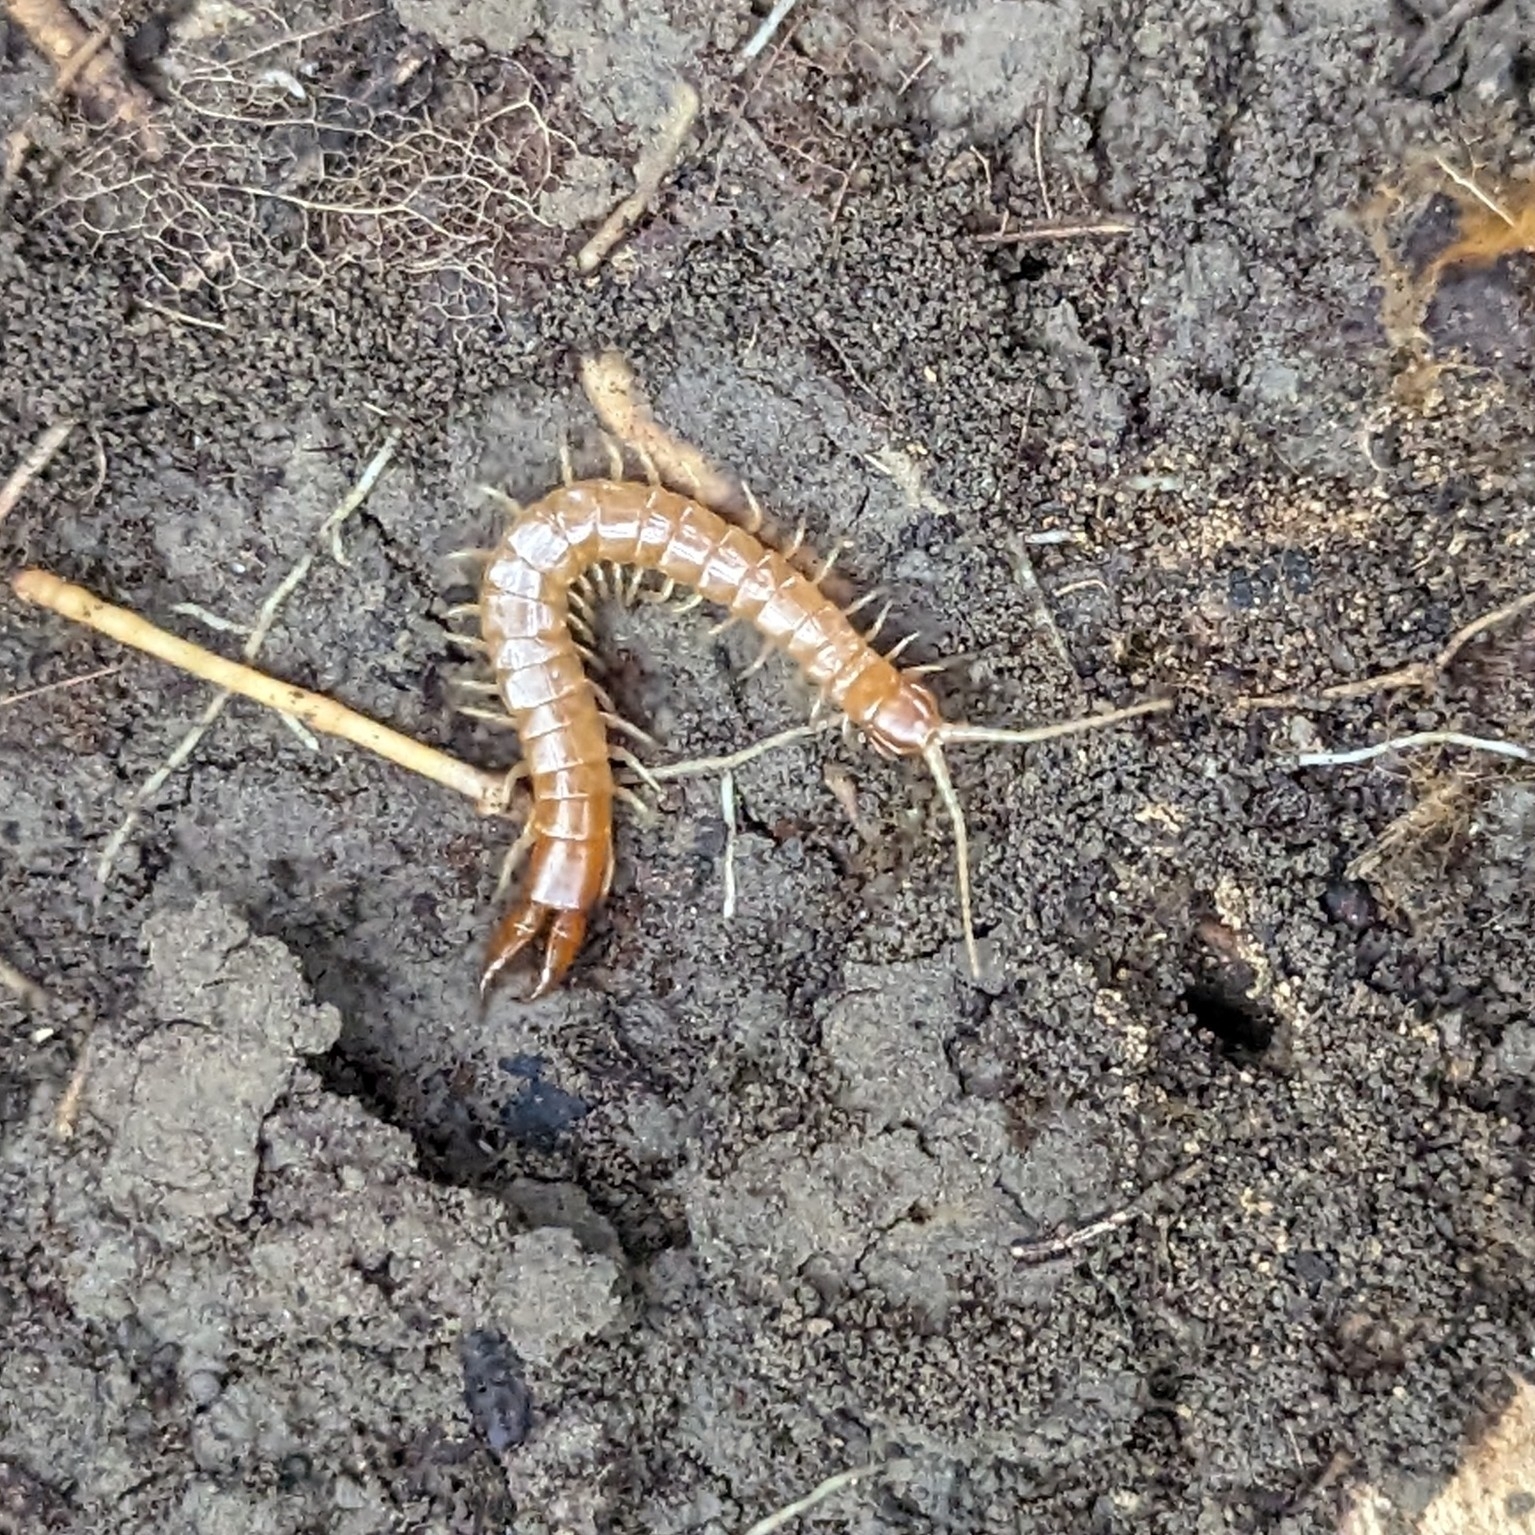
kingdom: Animalia
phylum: Arthropoda
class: Chilopoda
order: Scolopendromorpha
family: Cryptopidae
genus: Theatops
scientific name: Theatops posticus
